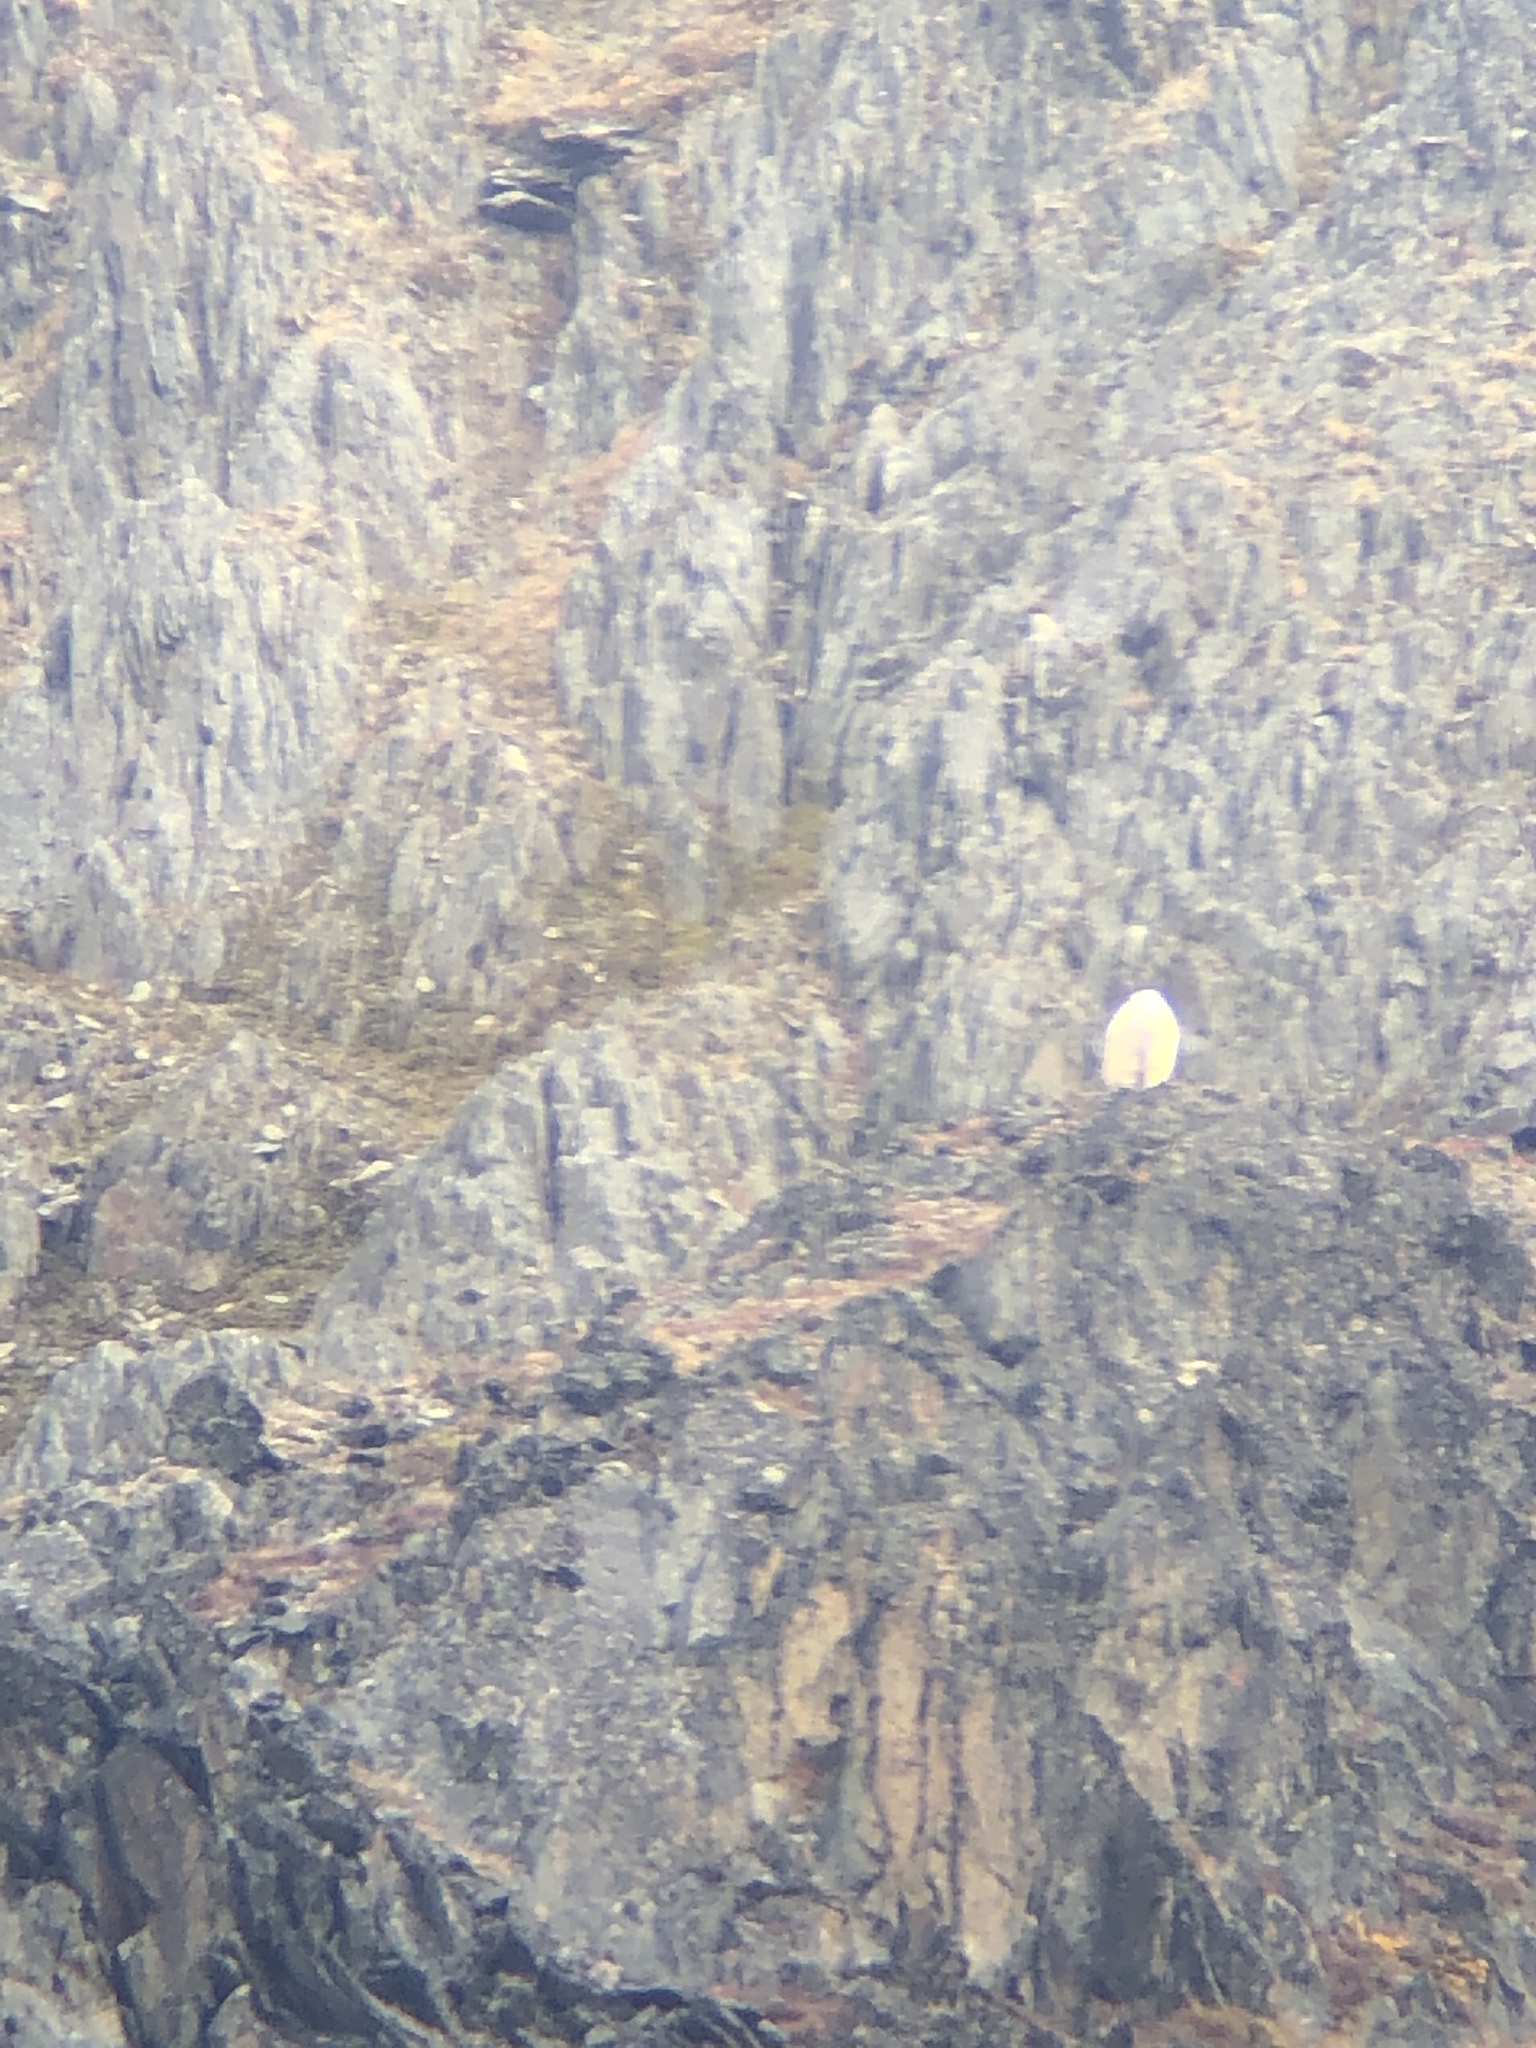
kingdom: Animalia
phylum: Chordata
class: Mammalia
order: Artiodactyla
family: Bovidae
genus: Oreamnos
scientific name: Oreamnos americanus
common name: Mountain goat
